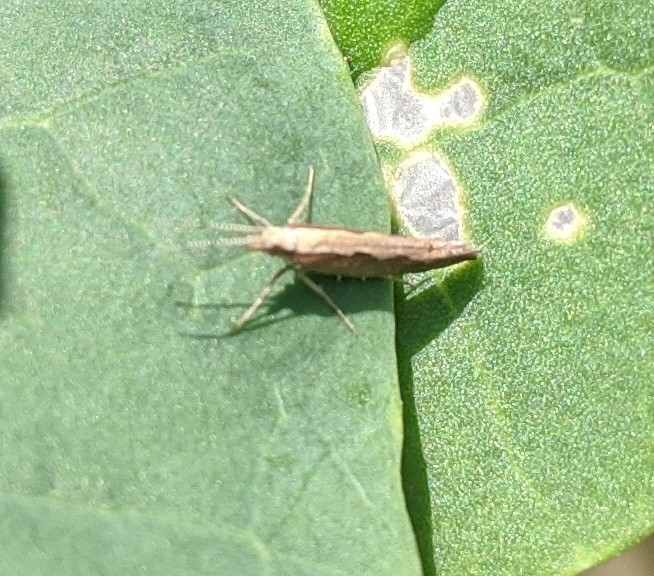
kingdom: Animalia
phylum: Arthropoda
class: Insecta
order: Lepidoptera
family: Plutellidae
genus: Plutella
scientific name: Plutella xylostella
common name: Diamond-back moth
